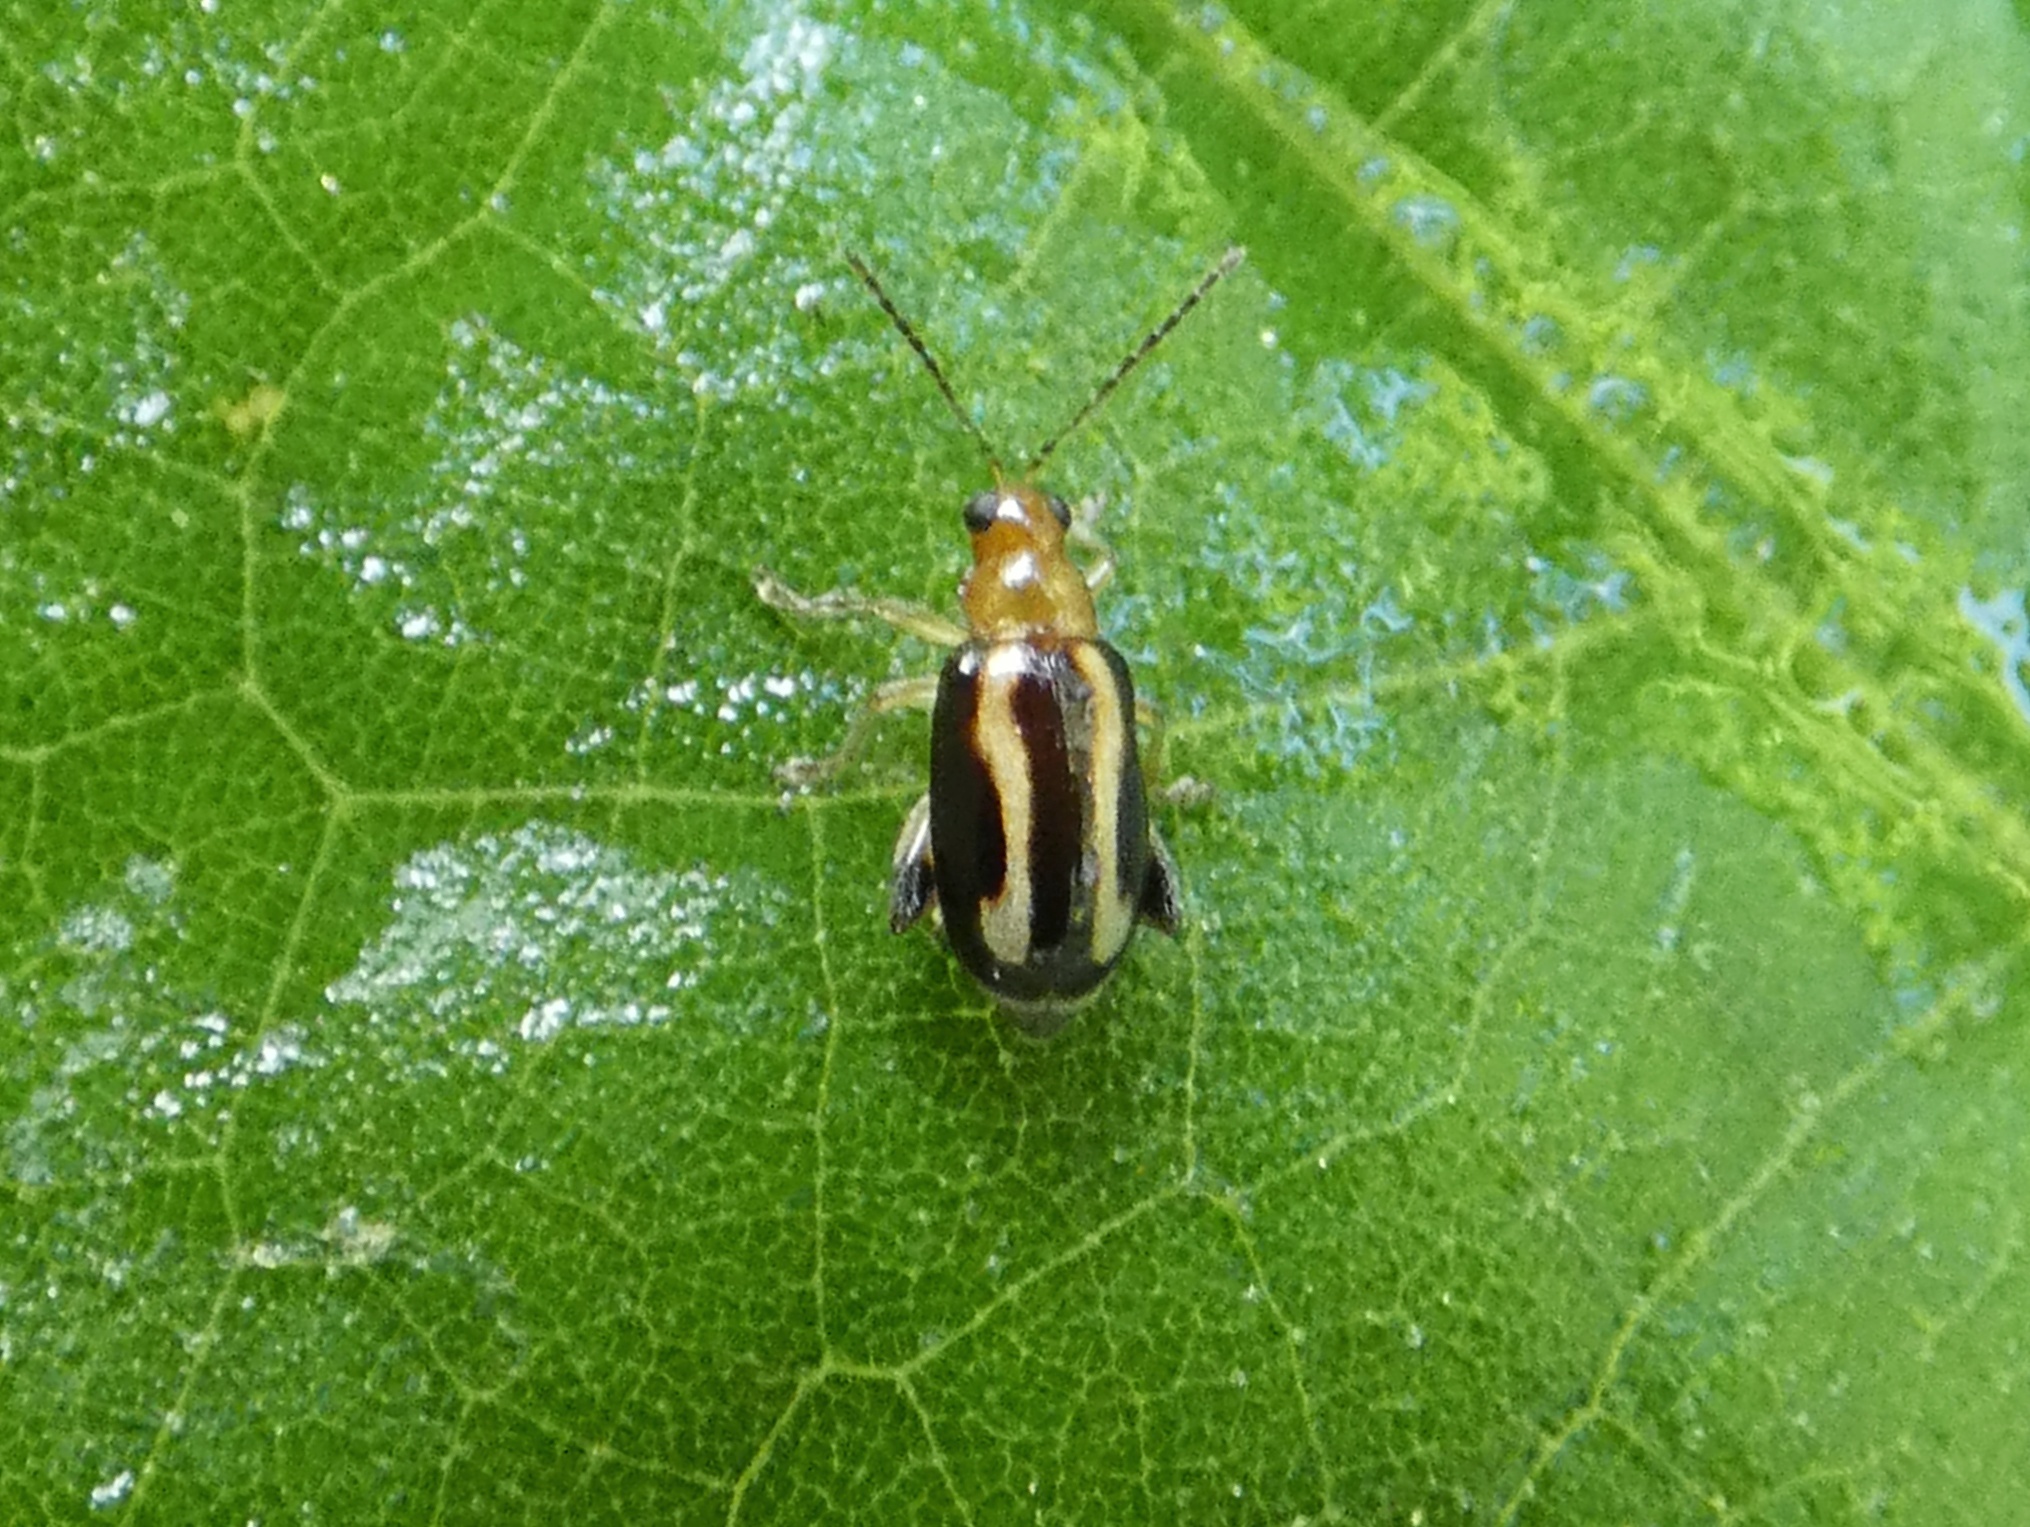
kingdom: Animalia
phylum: Arthropoda
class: Insecta
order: Coleoptera
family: Chrysomelidae
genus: Systena
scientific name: Systena s-littera
